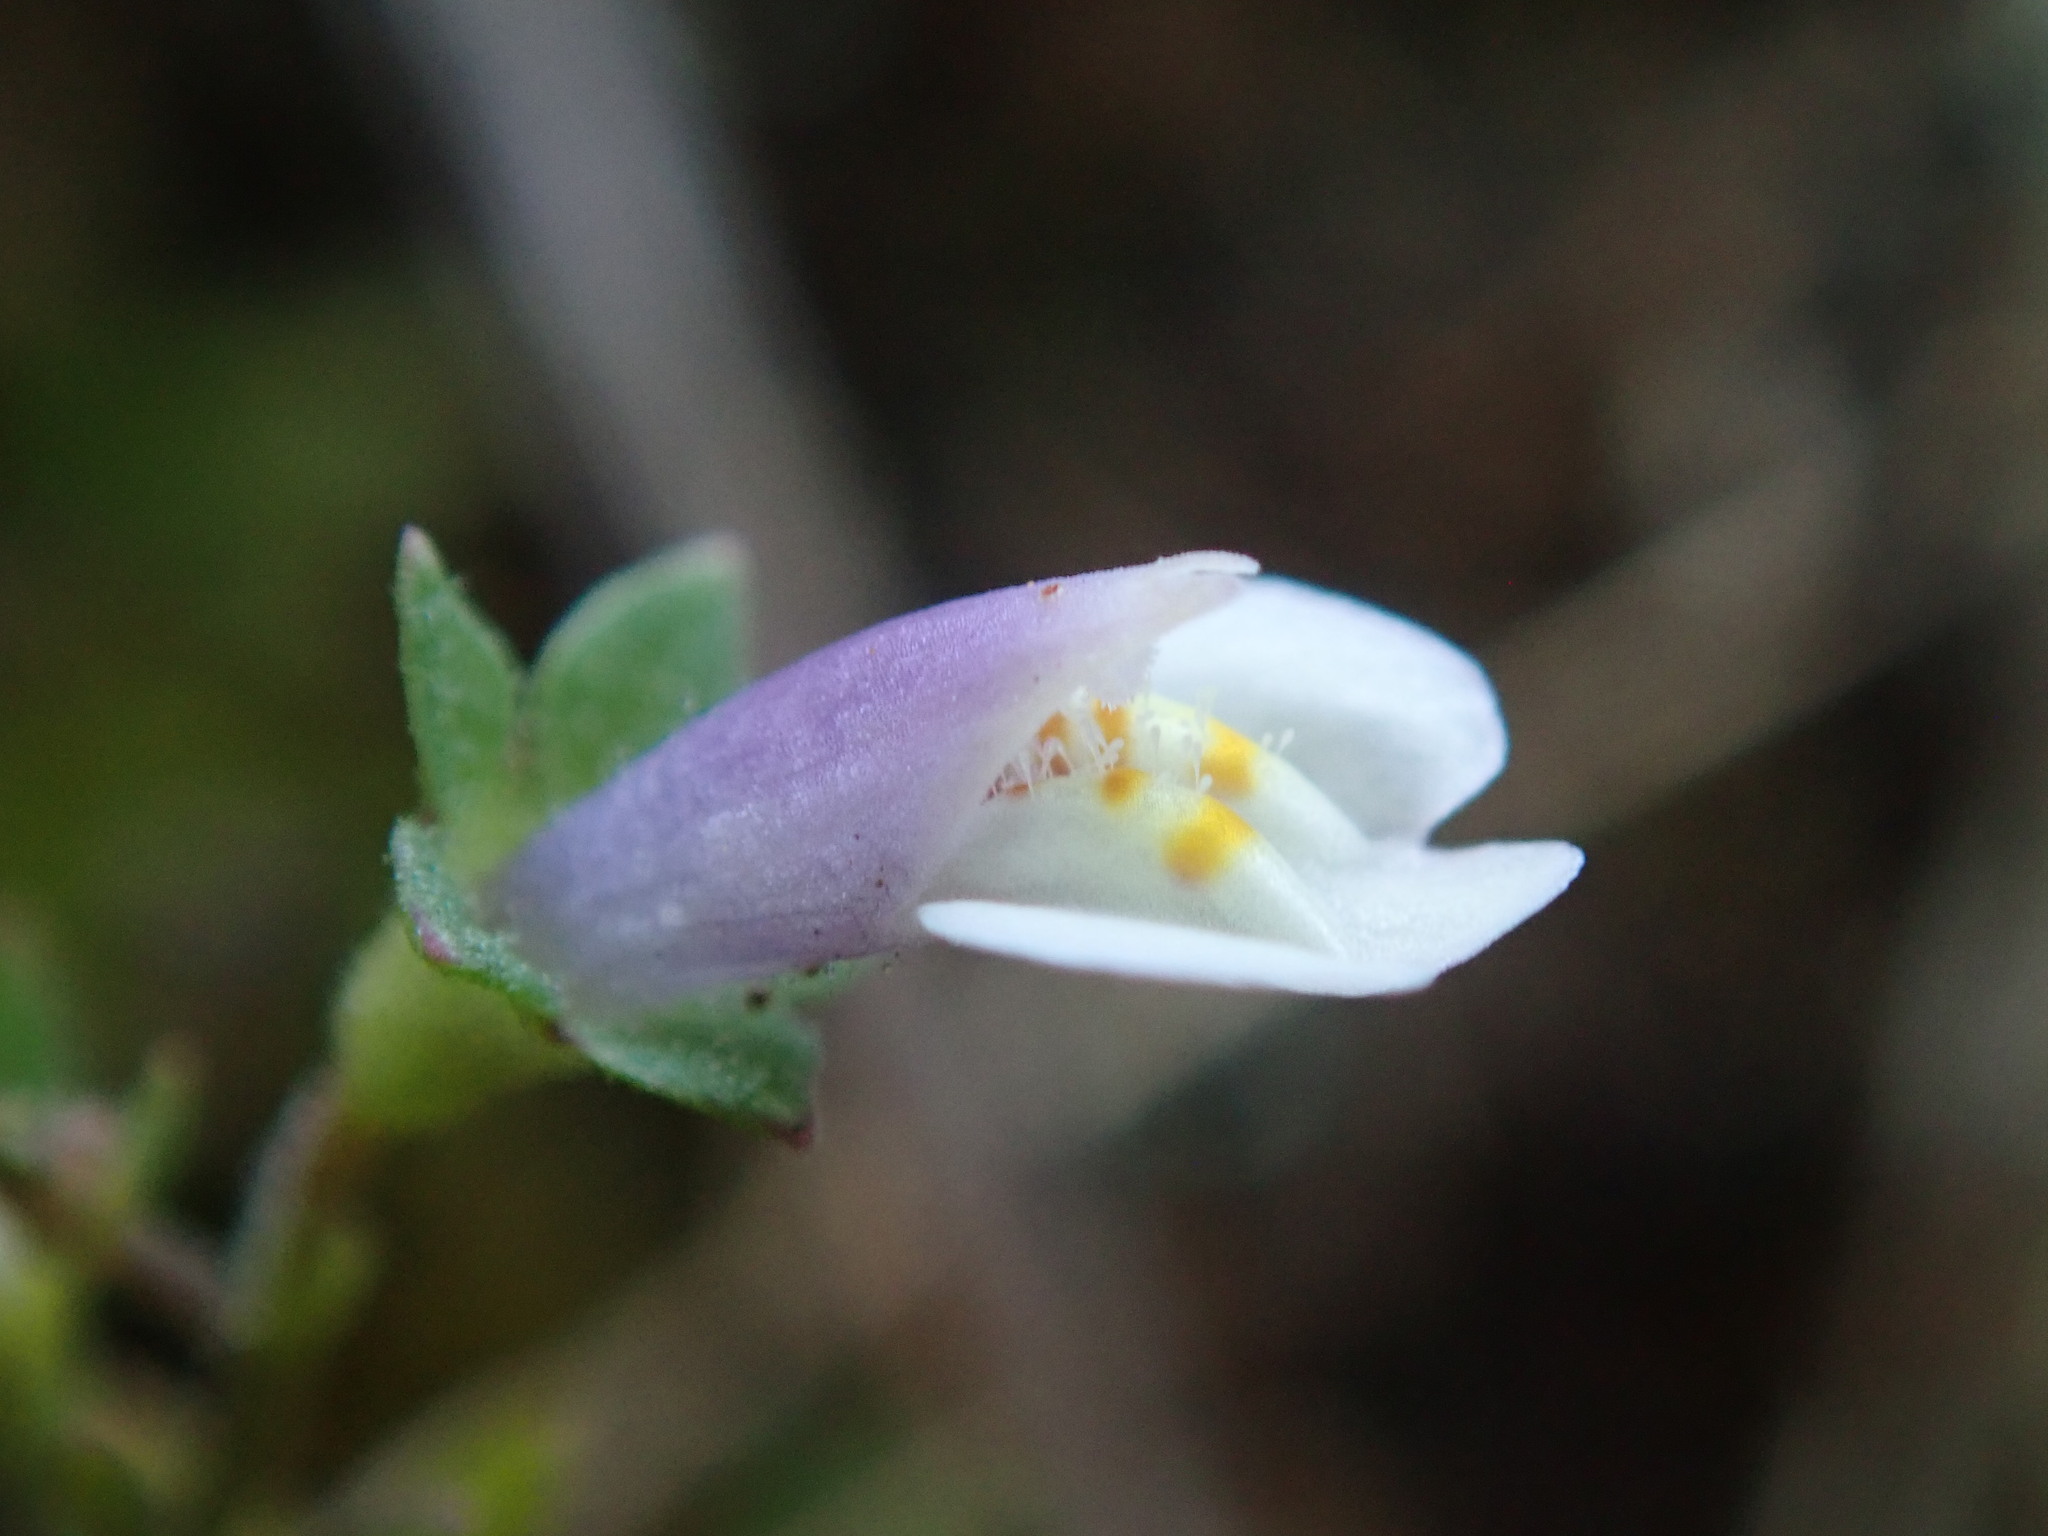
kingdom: Plantae
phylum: Tracheophyta
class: Magnoliopsida
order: Lamiales
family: Mazaceae
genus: Mazus
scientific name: Mazus pumilus
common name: Japanese mazus
